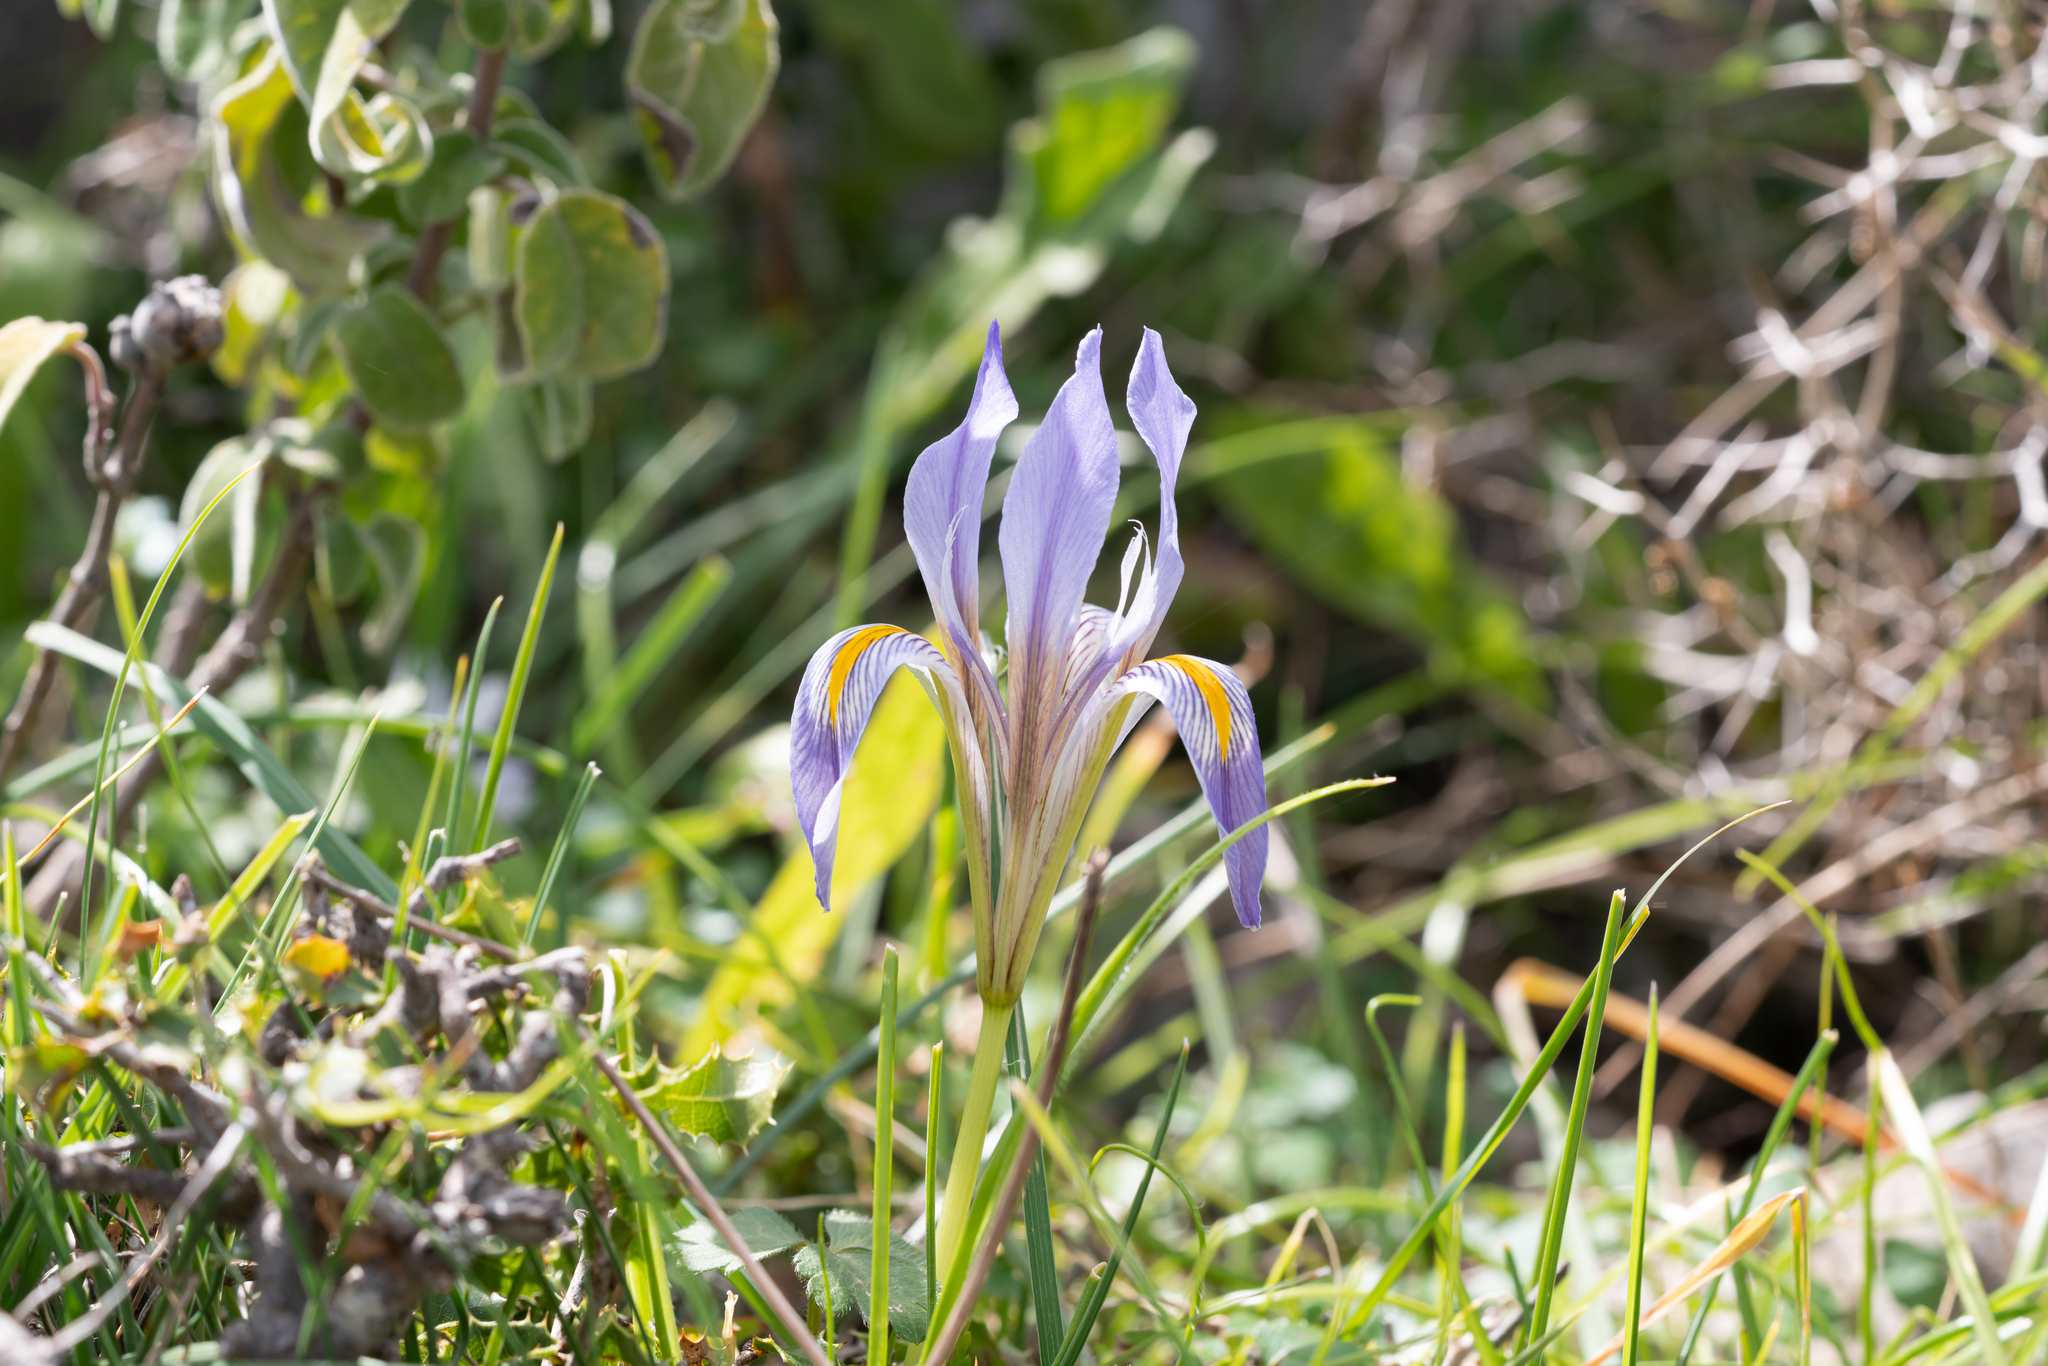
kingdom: Plantae
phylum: Tracheophyta
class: Liliopsida
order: Asparagales
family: Iridaceae
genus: Iris
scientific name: Iris unguicularis
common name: Algerian iris
